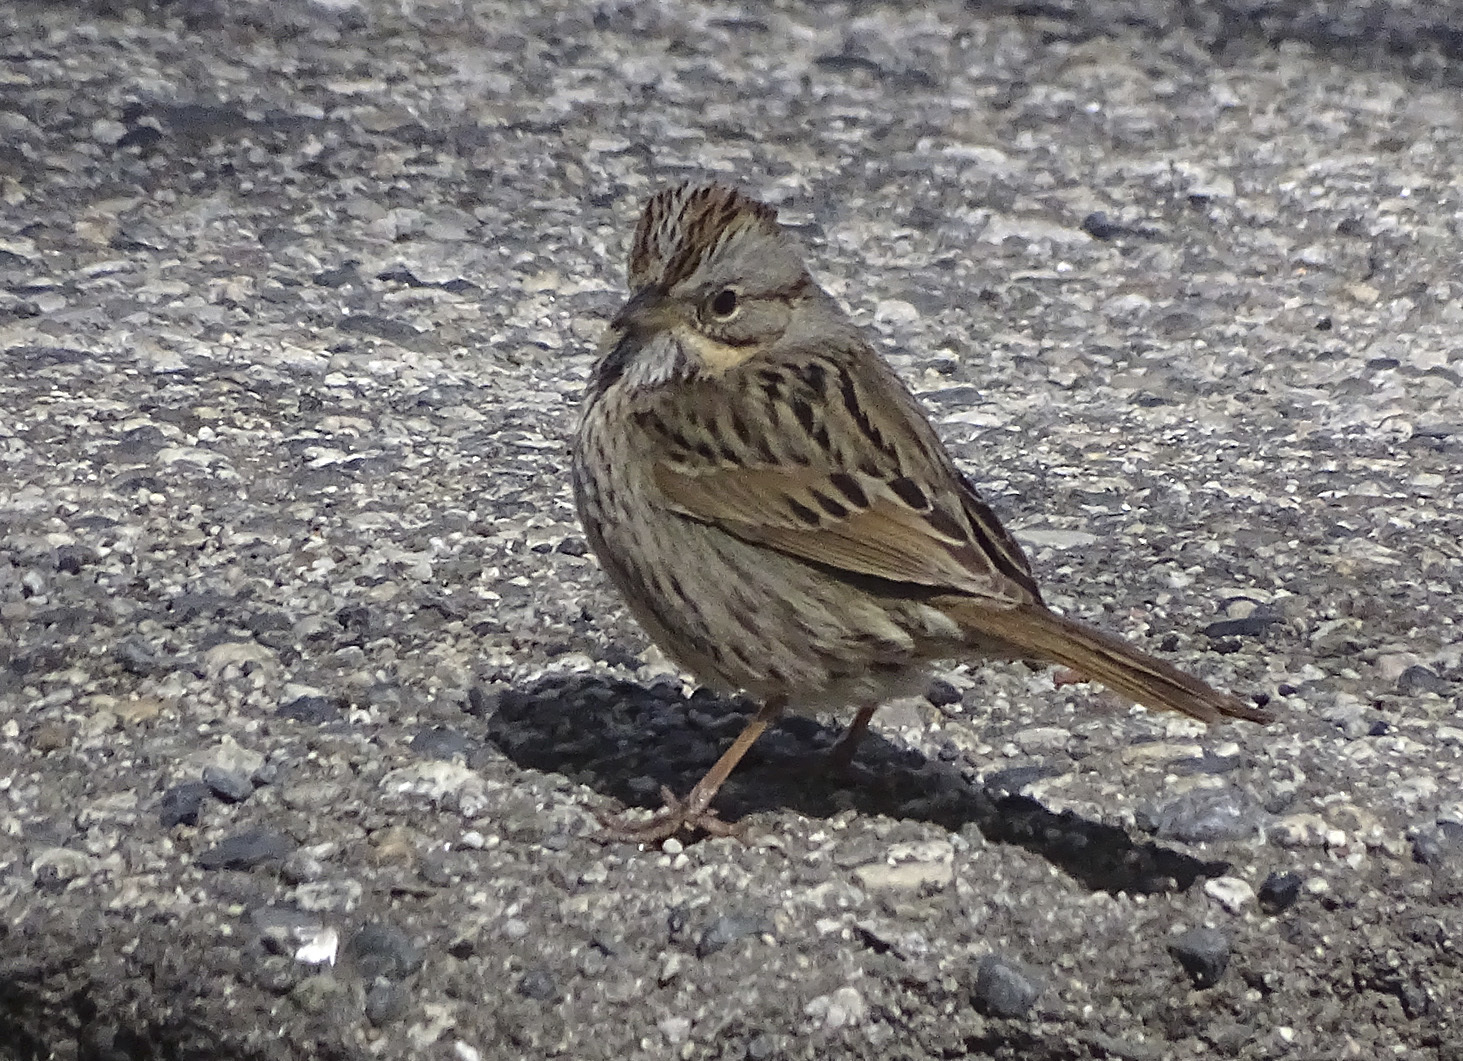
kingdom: Animalia
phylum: Chordata
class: Aves
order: Passeriformes
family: Passerellidae
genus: Melospiza
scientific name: Melospiza lincolnii
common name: Lincoln's sparrow
